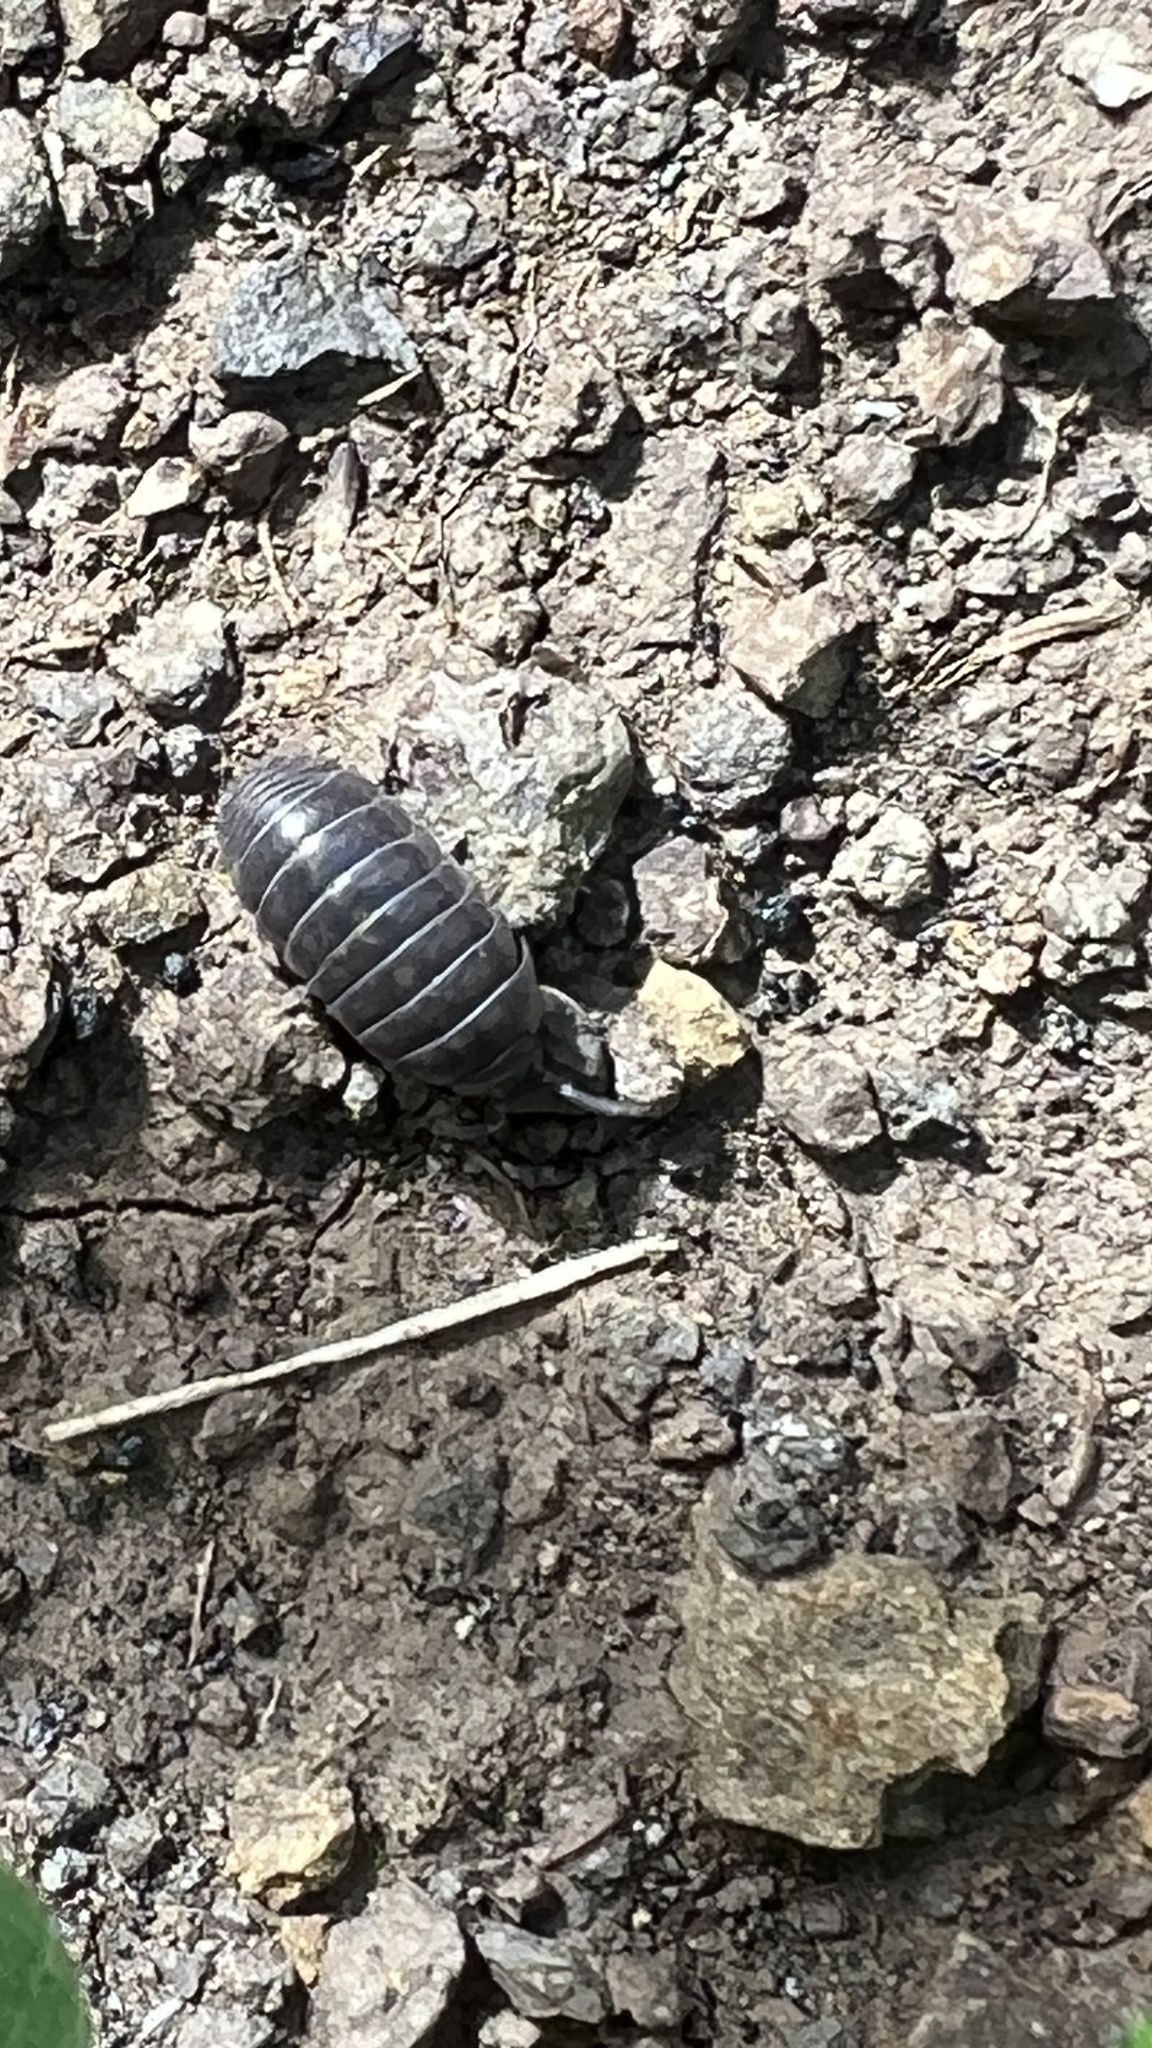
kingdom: Animalia
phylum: Arthropoda
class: Malacostraca
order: Isopoda
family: Armadillidiidae
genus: Armadillidium
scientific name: Armadillidium vulgare
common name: Common pill woodlouse
